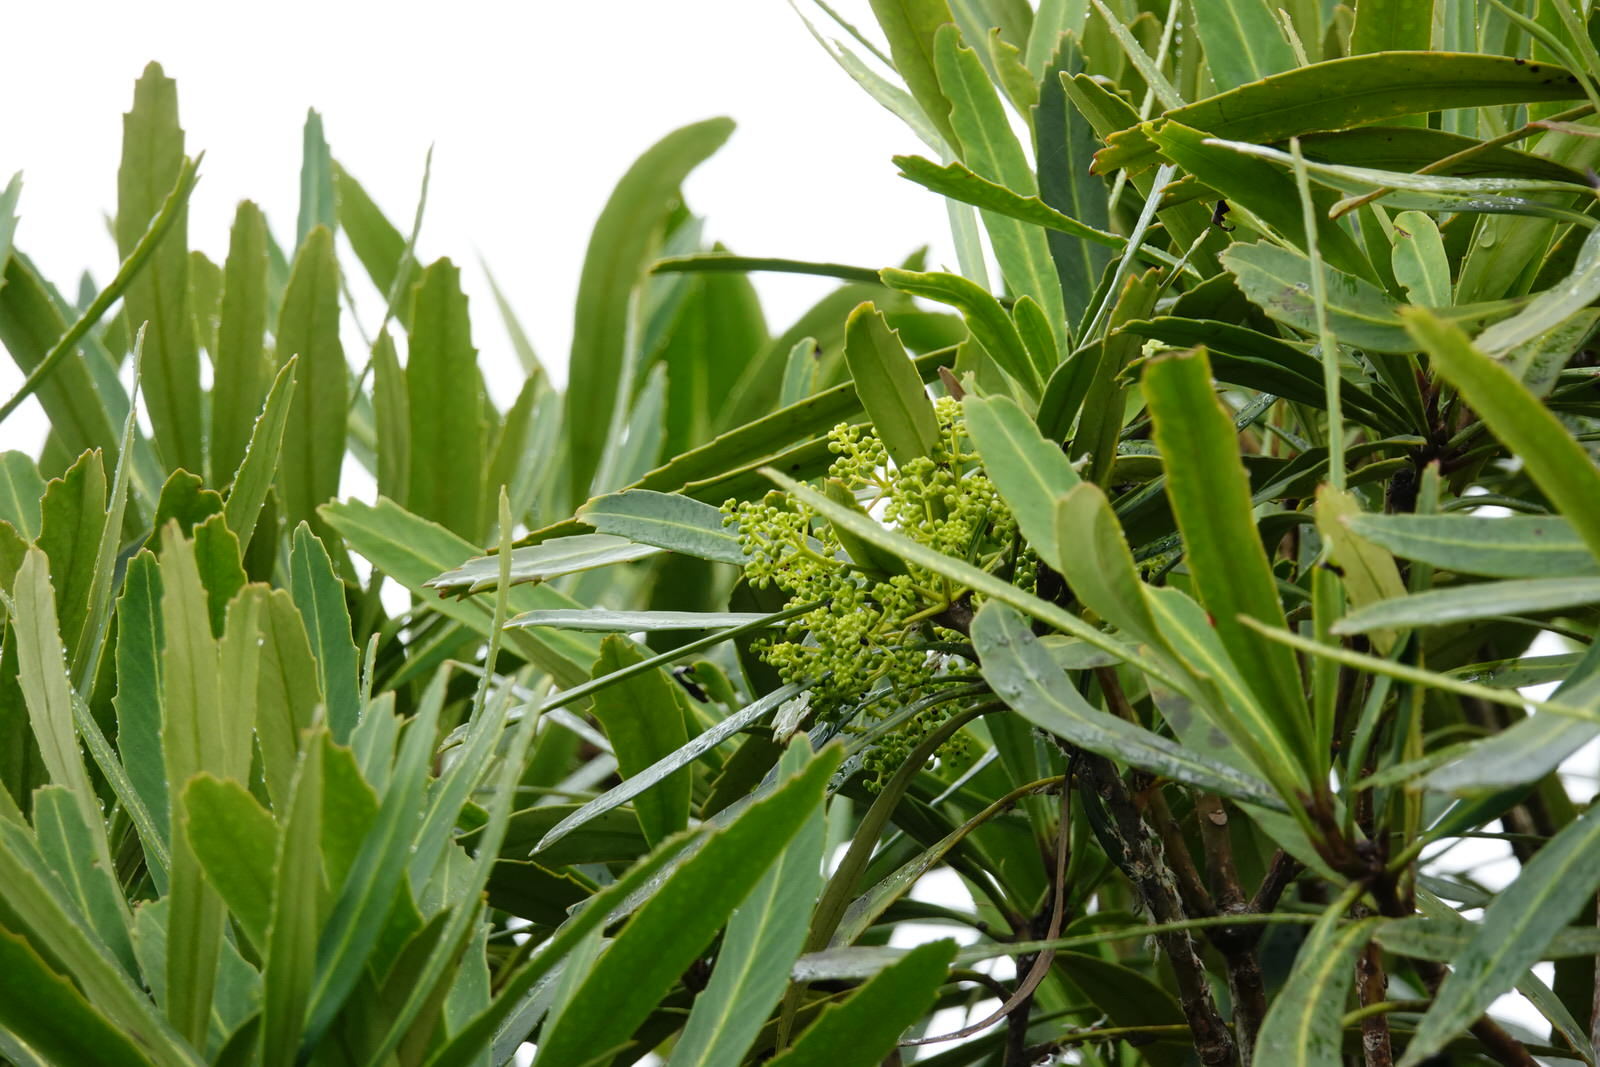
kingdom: Plantae
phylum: Tracheophyta
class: Magnoliopsida
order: Apiales
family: Araliaceae
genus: Pseudopanax
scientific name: Pseudopanax crassifolius
